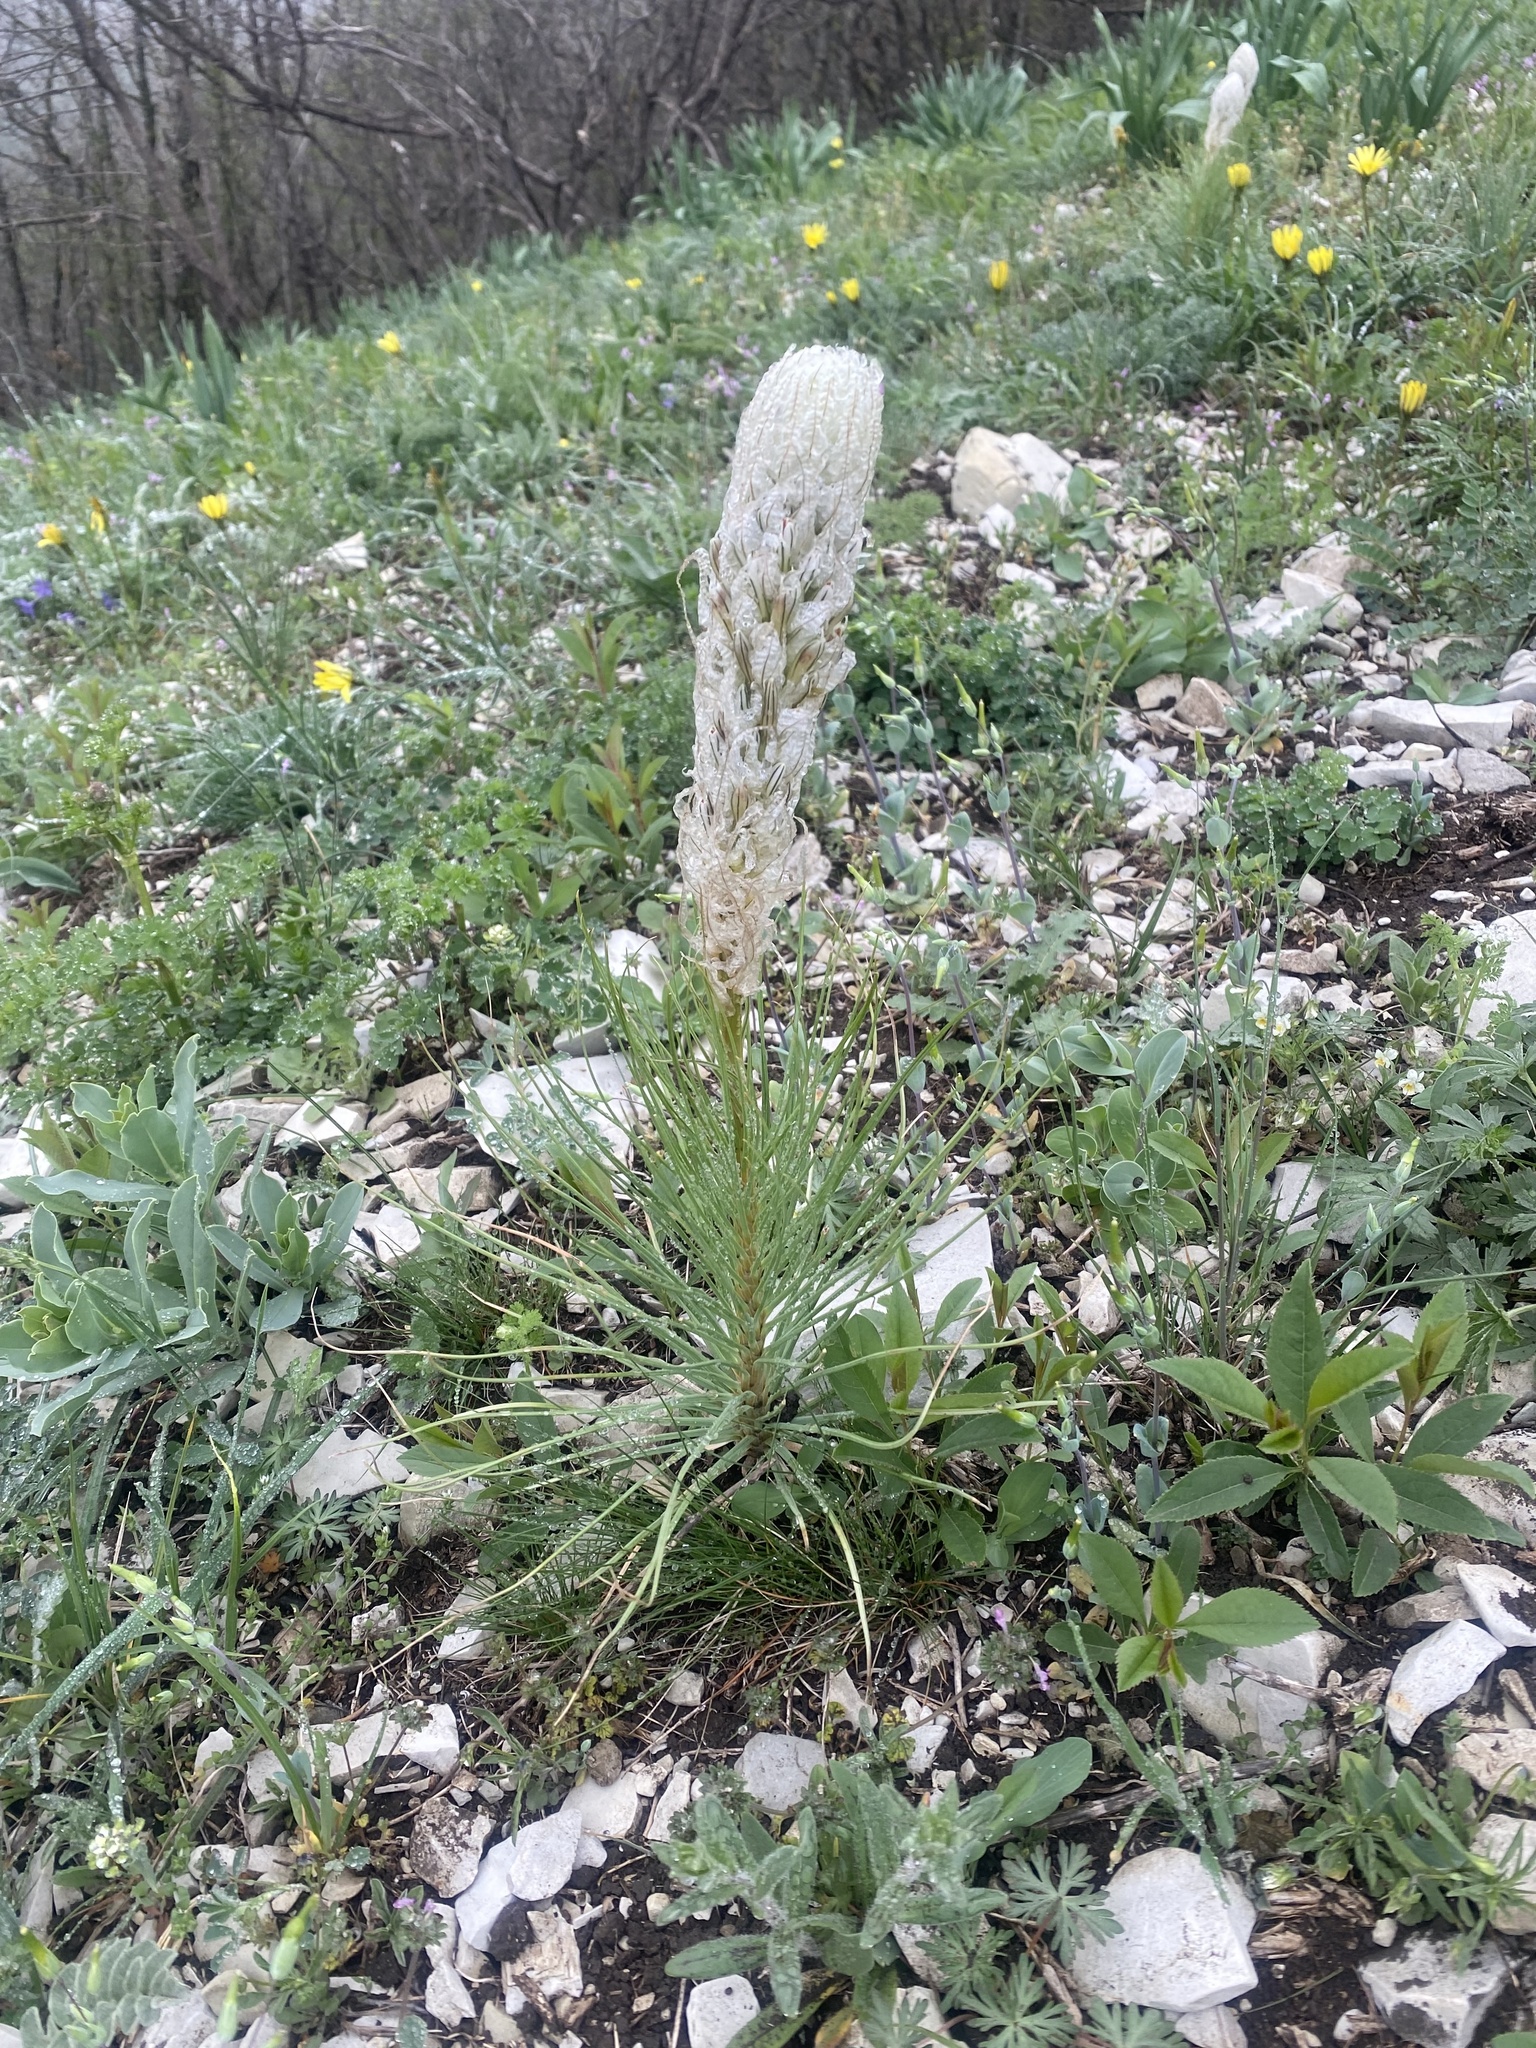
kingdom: Plantae
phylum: Tracheophyta
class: Liliopsida
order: Asparagales
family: Asphodelaceae
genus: Asphodeline
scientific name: Asphodeline taurica
